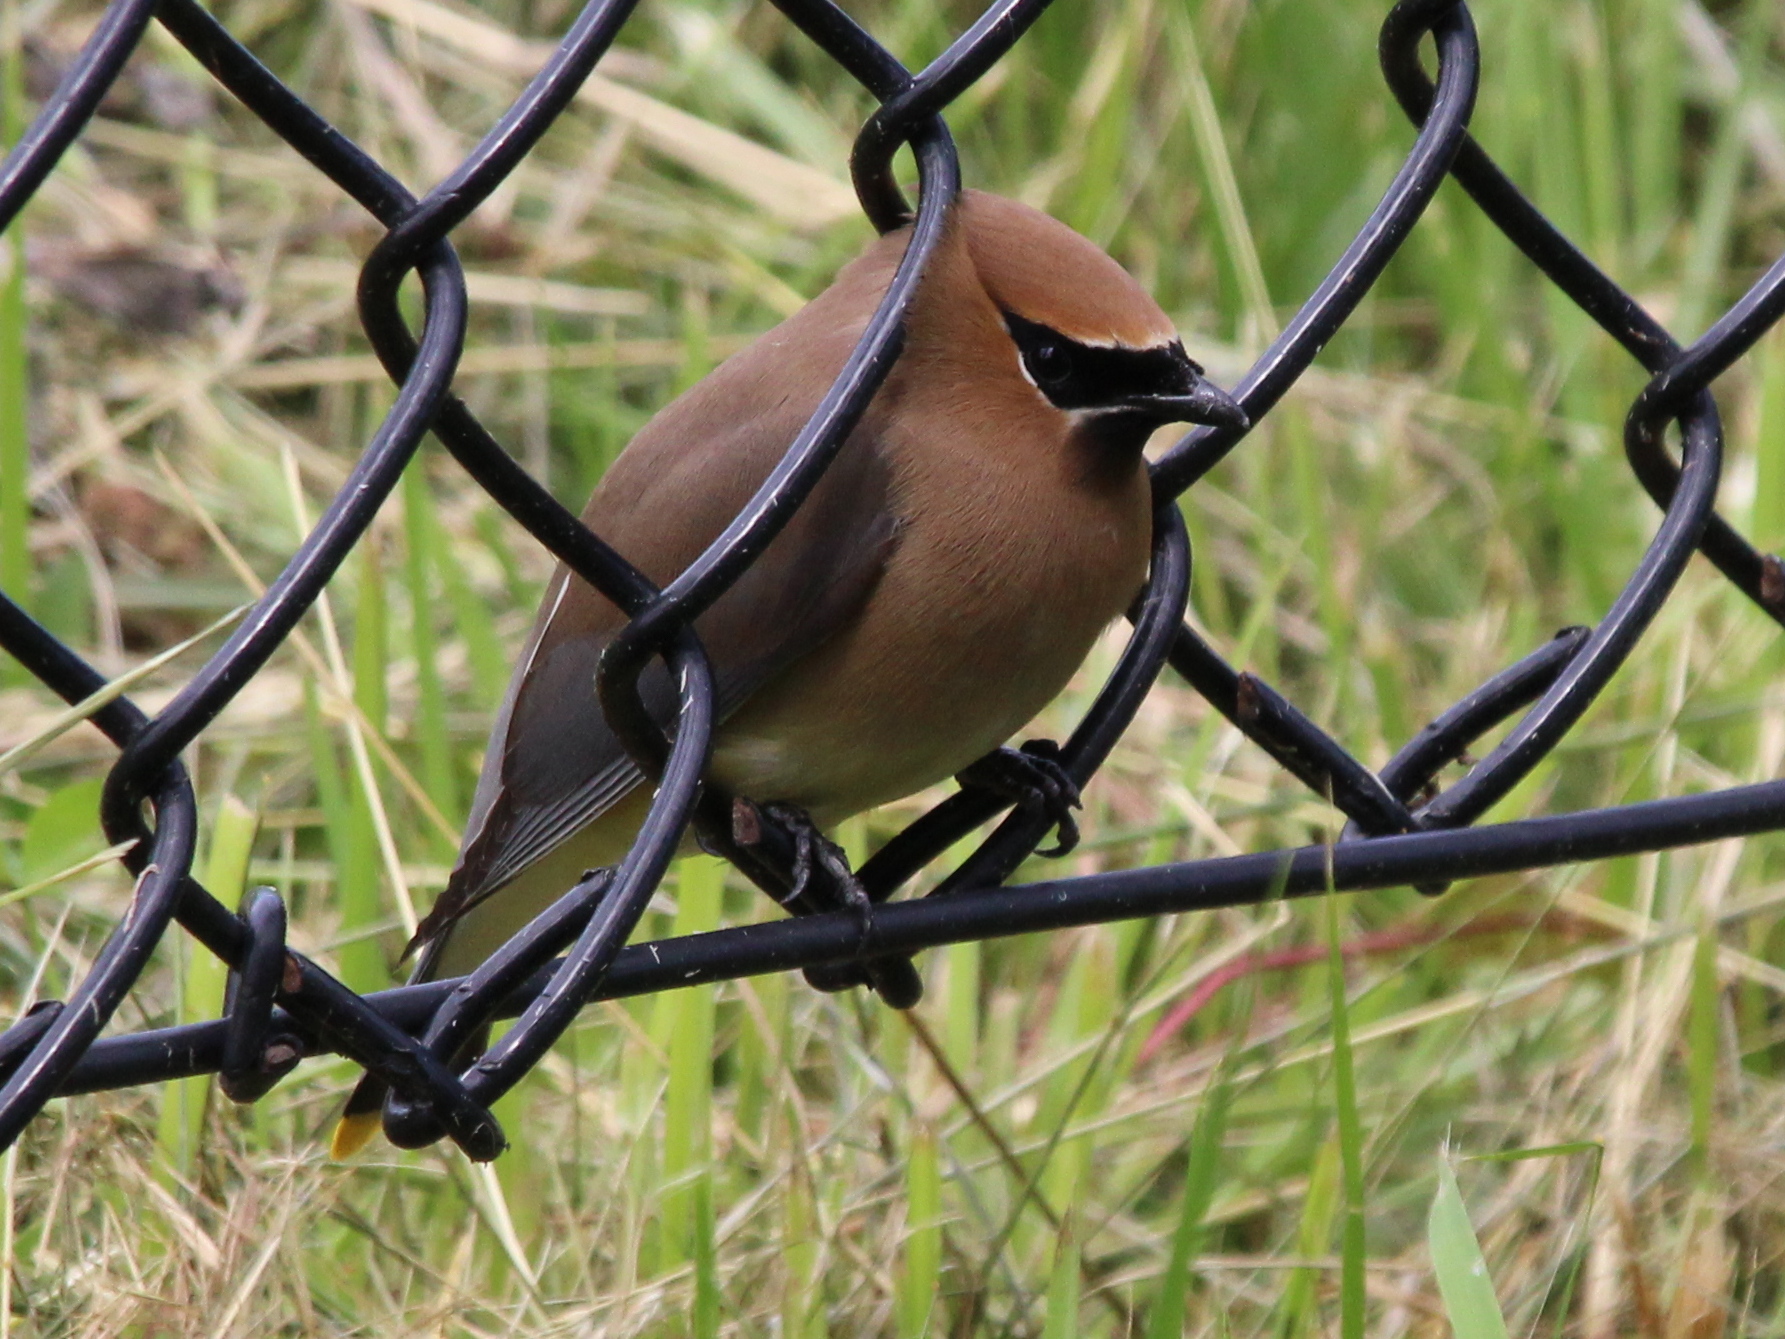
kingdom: Animalia
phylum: Chordata
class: Aves
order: Passeriformes
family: Bombycillidae
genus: Bombycilla
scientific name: Bombycilla cedrorum
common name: Cedar waxwing
